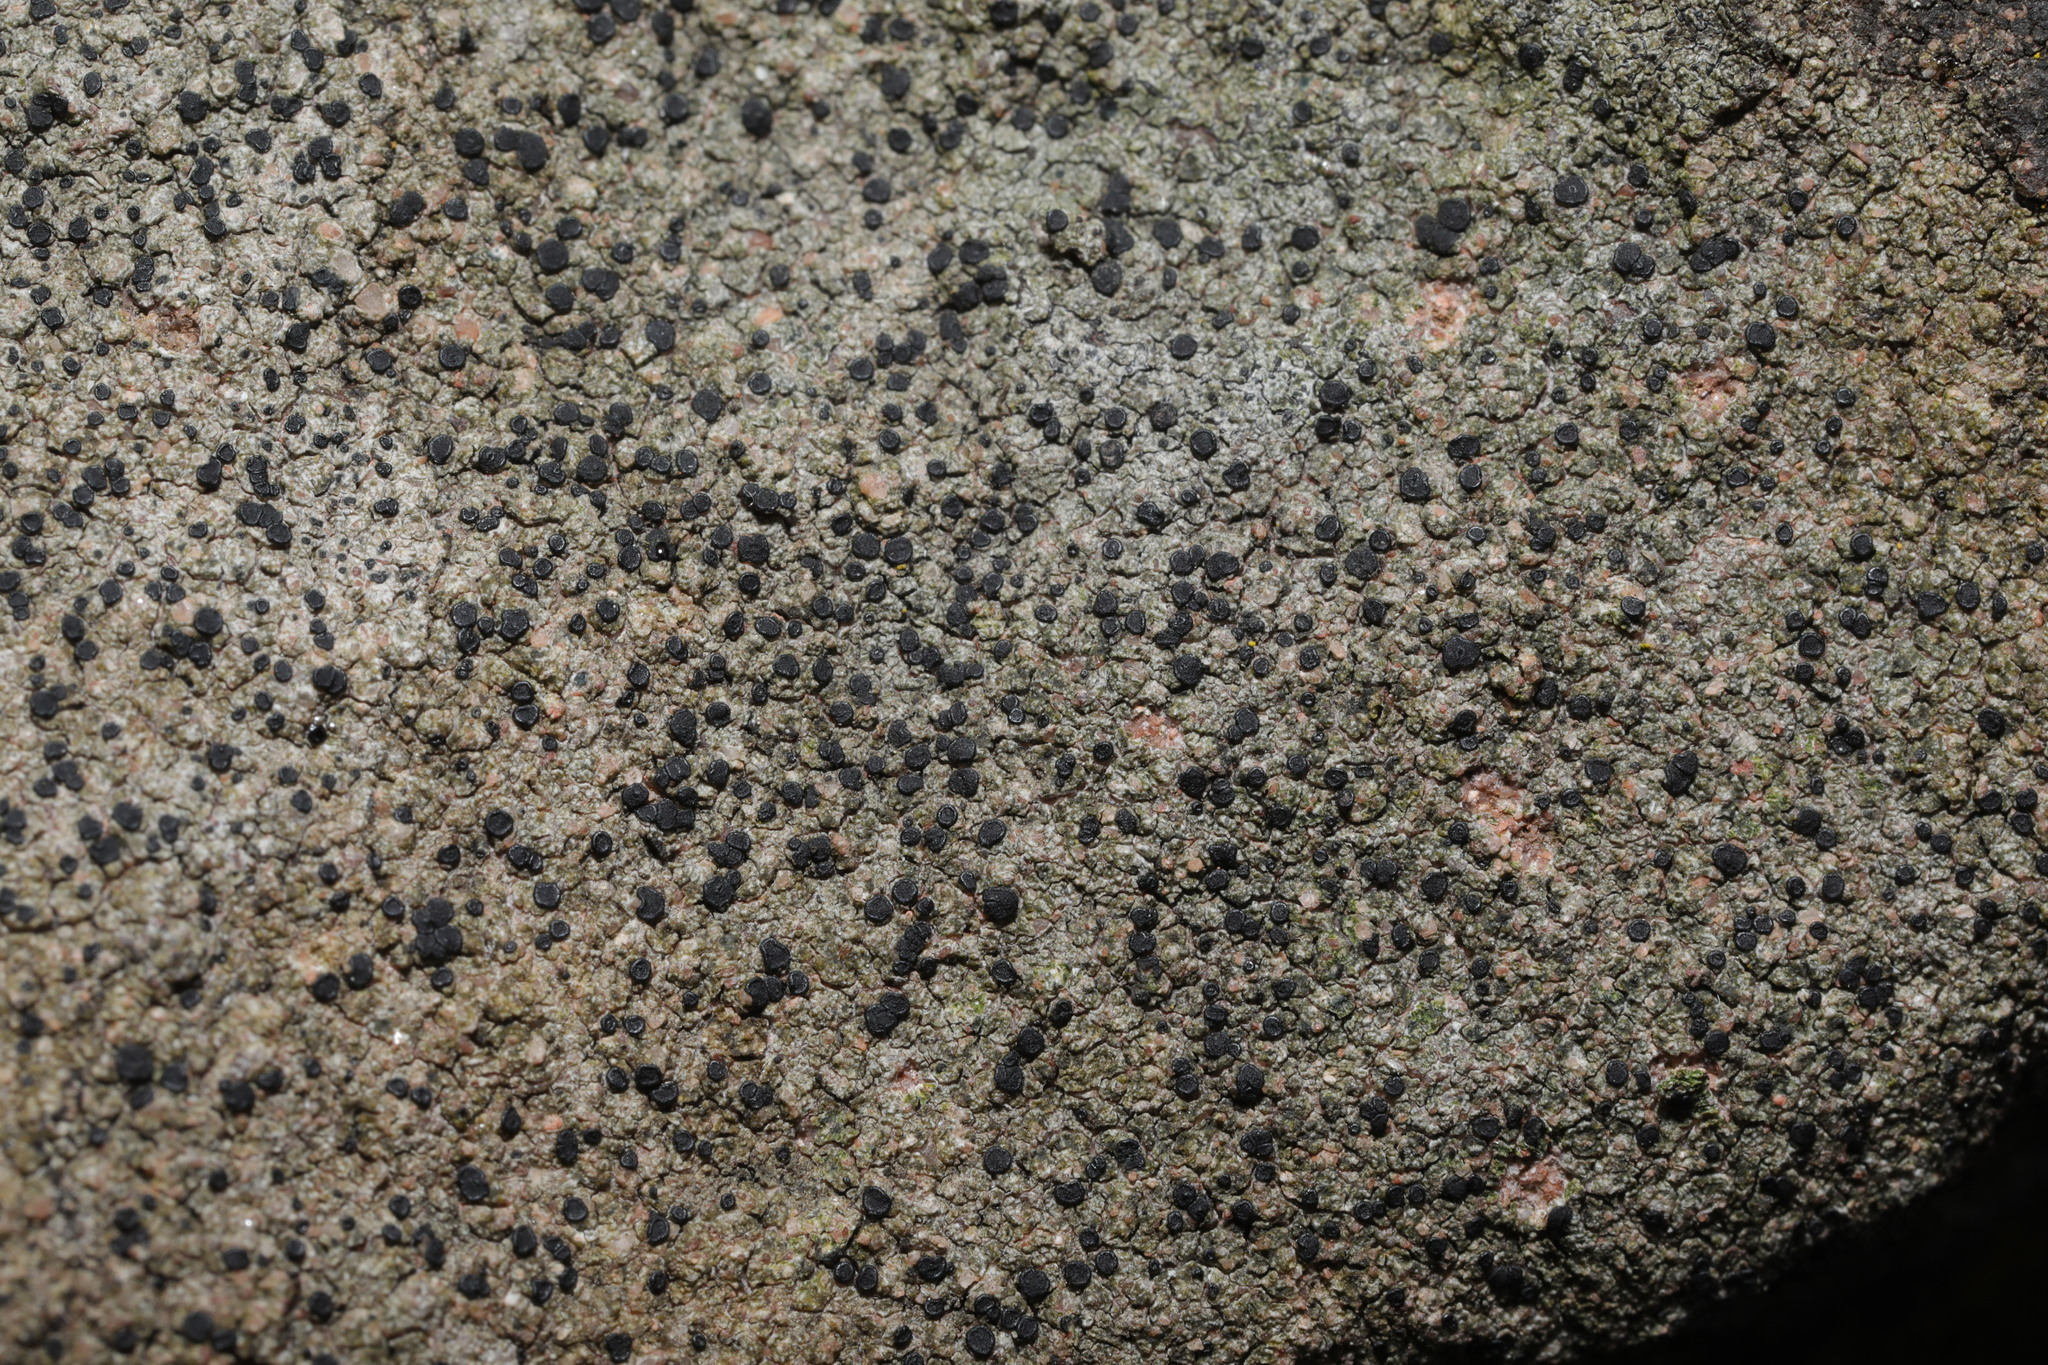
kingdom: Fungi
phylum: Ascomycota
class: Lecanoromycetes
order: Lecanorales
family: Lecanoraceae
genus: Lecidella
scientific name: Lecidella stigmatea
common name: Limestone disc lichen
